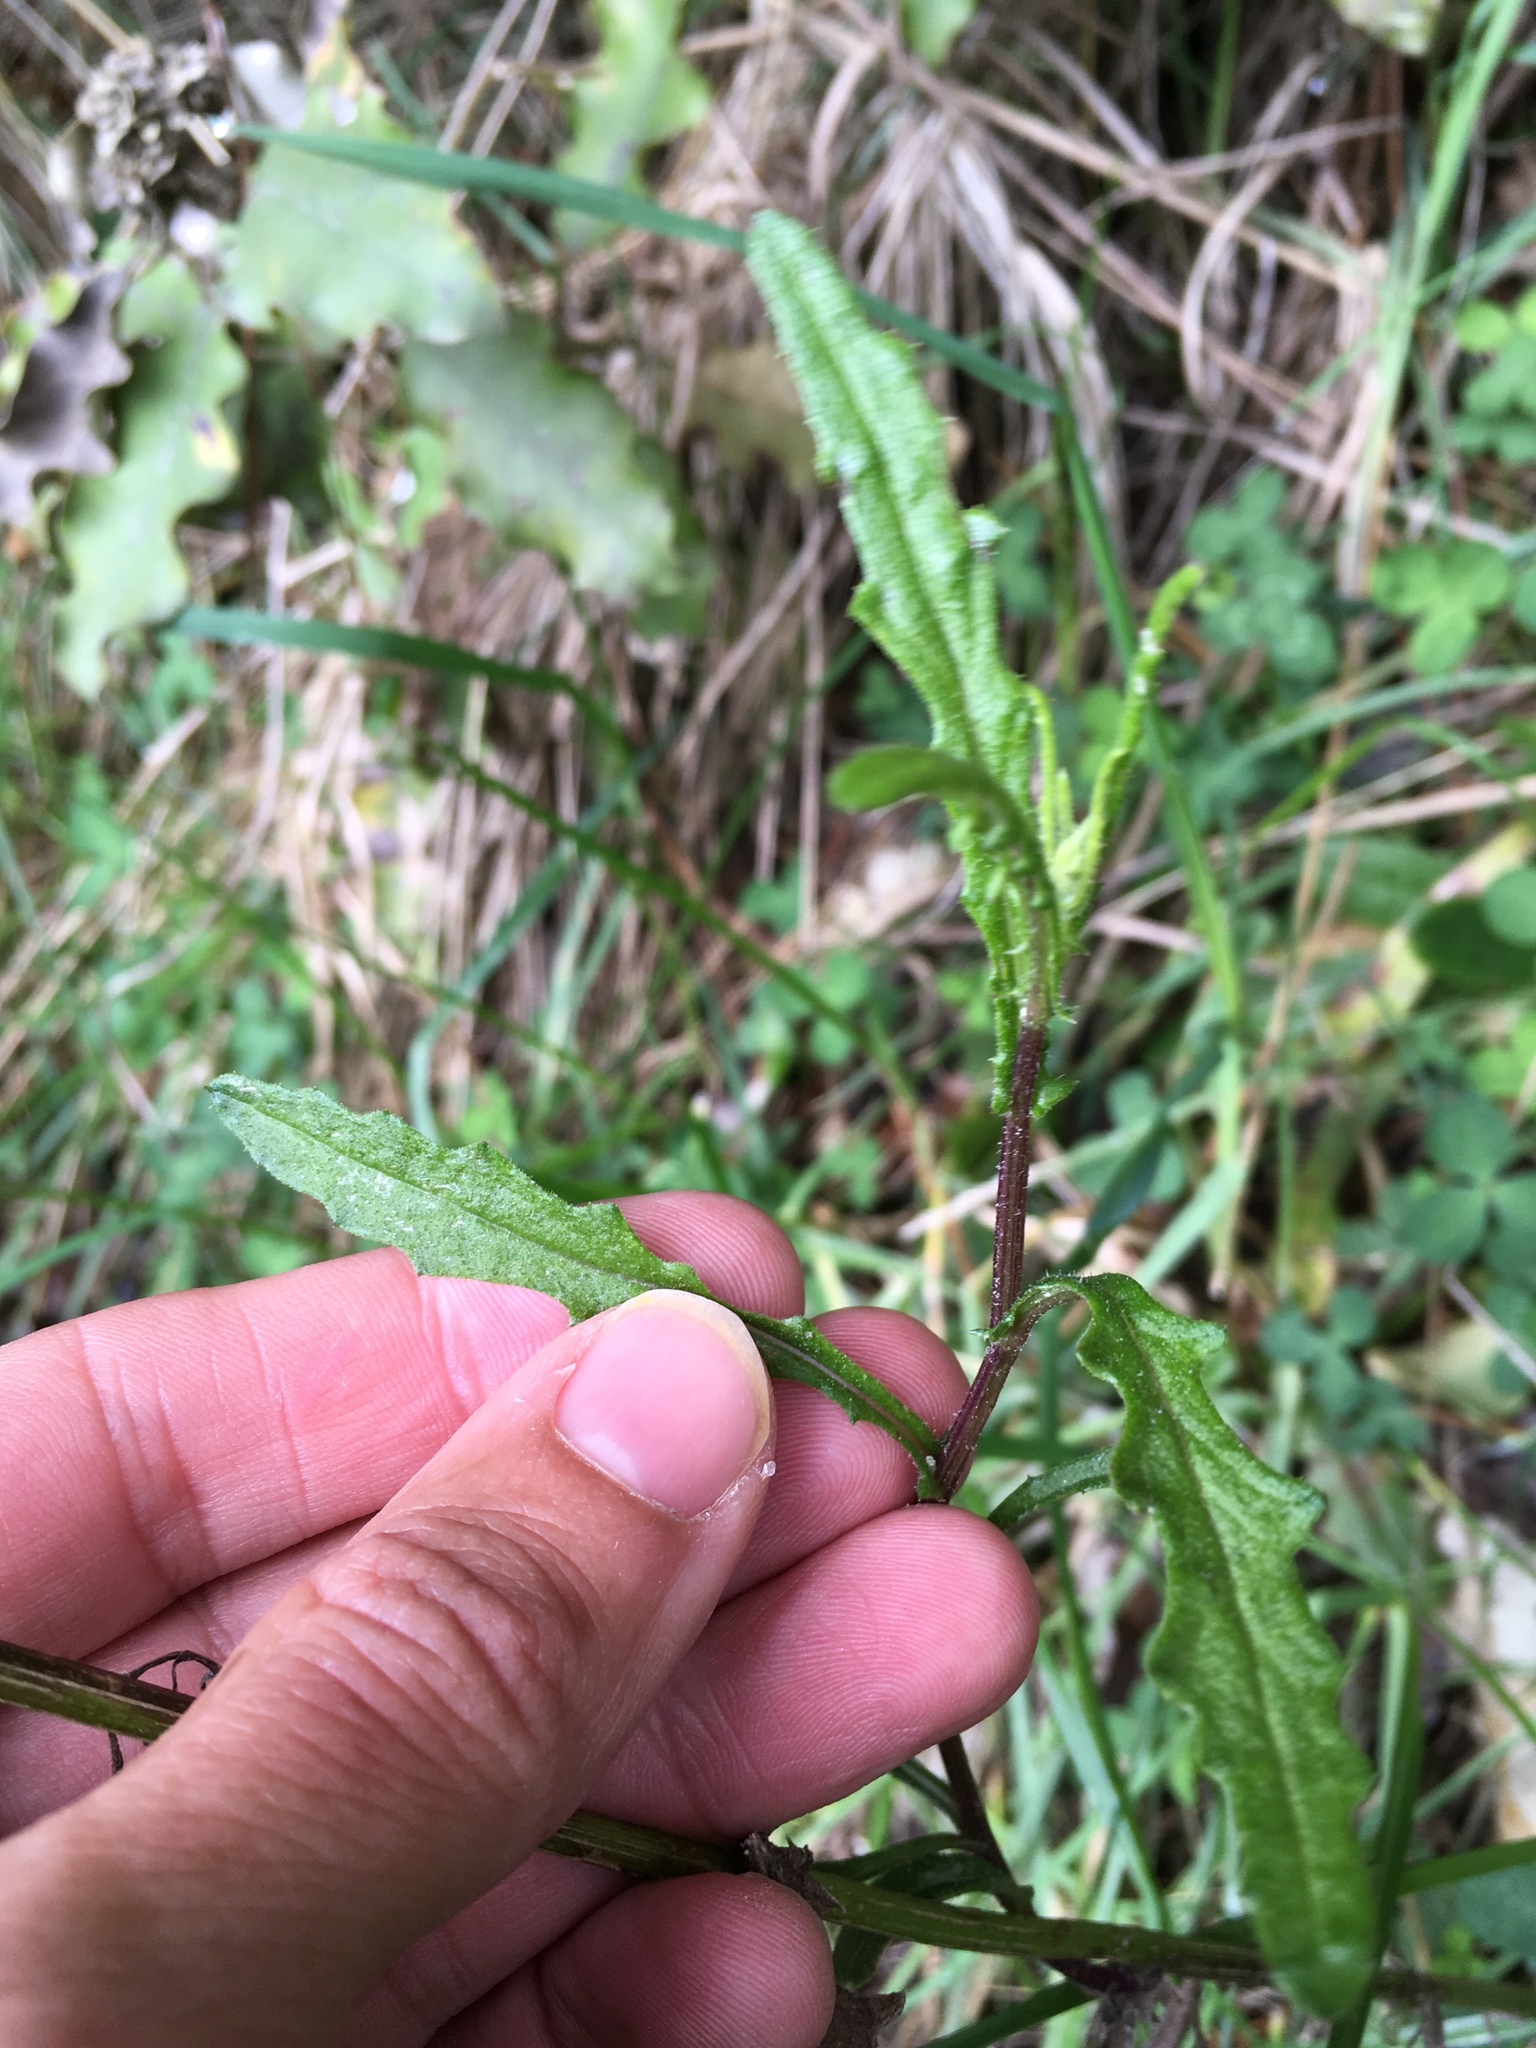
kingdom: Plantae
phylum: Tracheophyta
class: Magnoliopsida
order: Asterales
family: Asteraceae
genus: Senecio
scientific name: Senecio hispidulus
